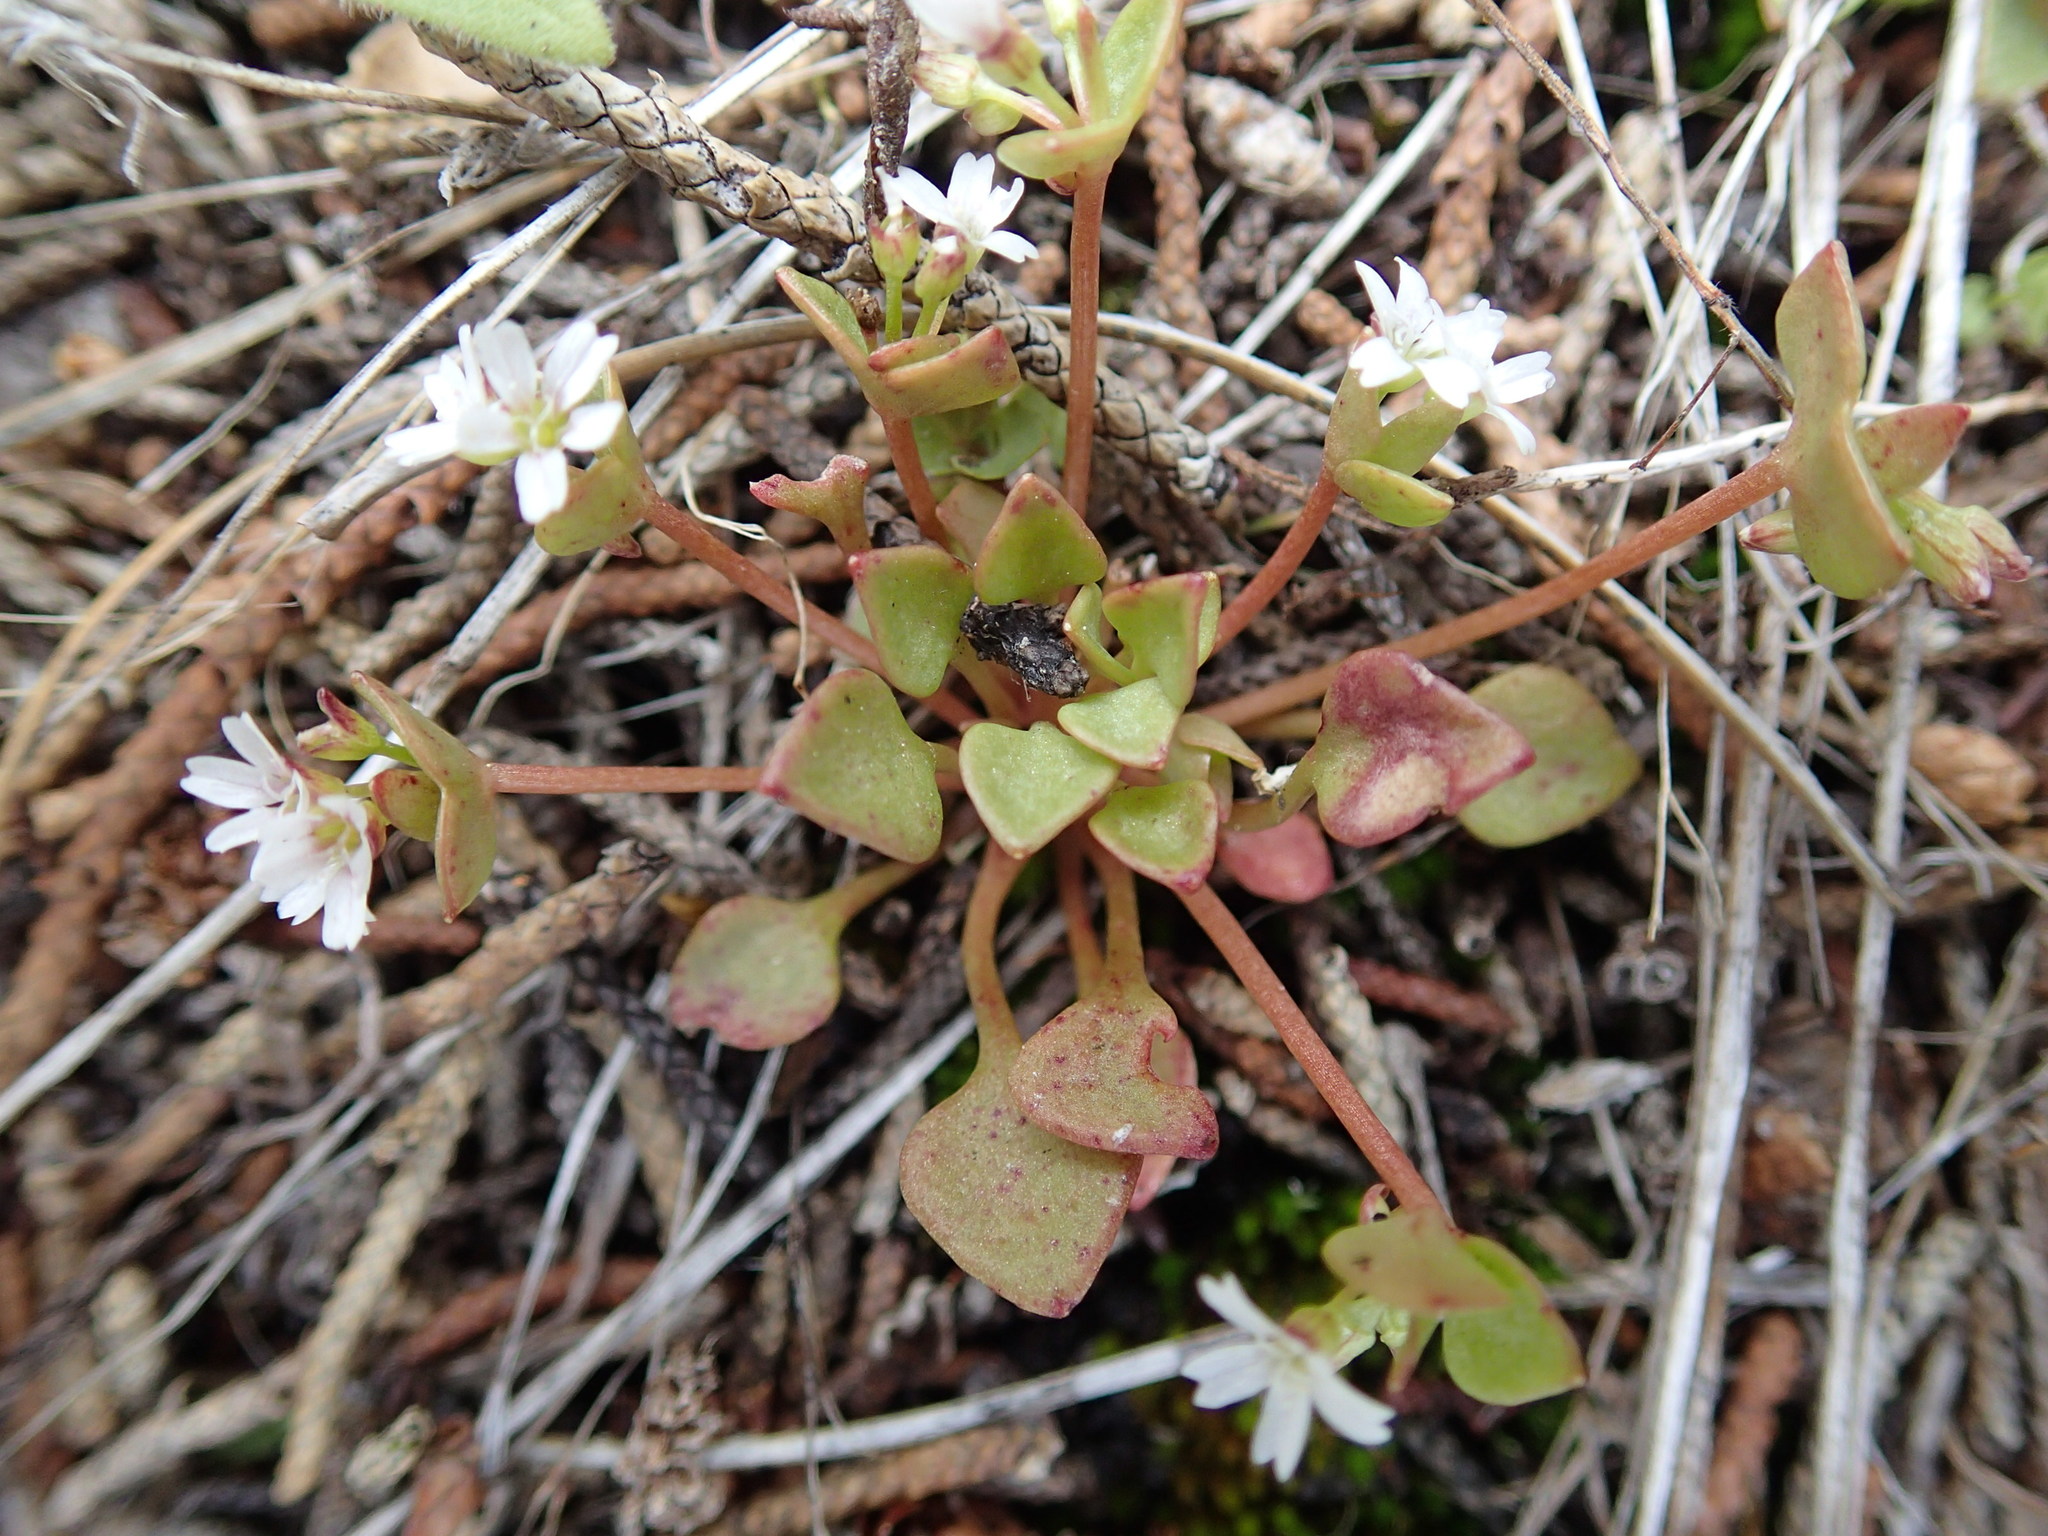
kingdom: Plantae
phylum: Tracheophyta
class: Magnoliopsida
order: Caryophyllales
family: Montiaceae
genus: Claytonia
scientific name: Claytonia rubra
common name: Erubescent miner's-lettuce
